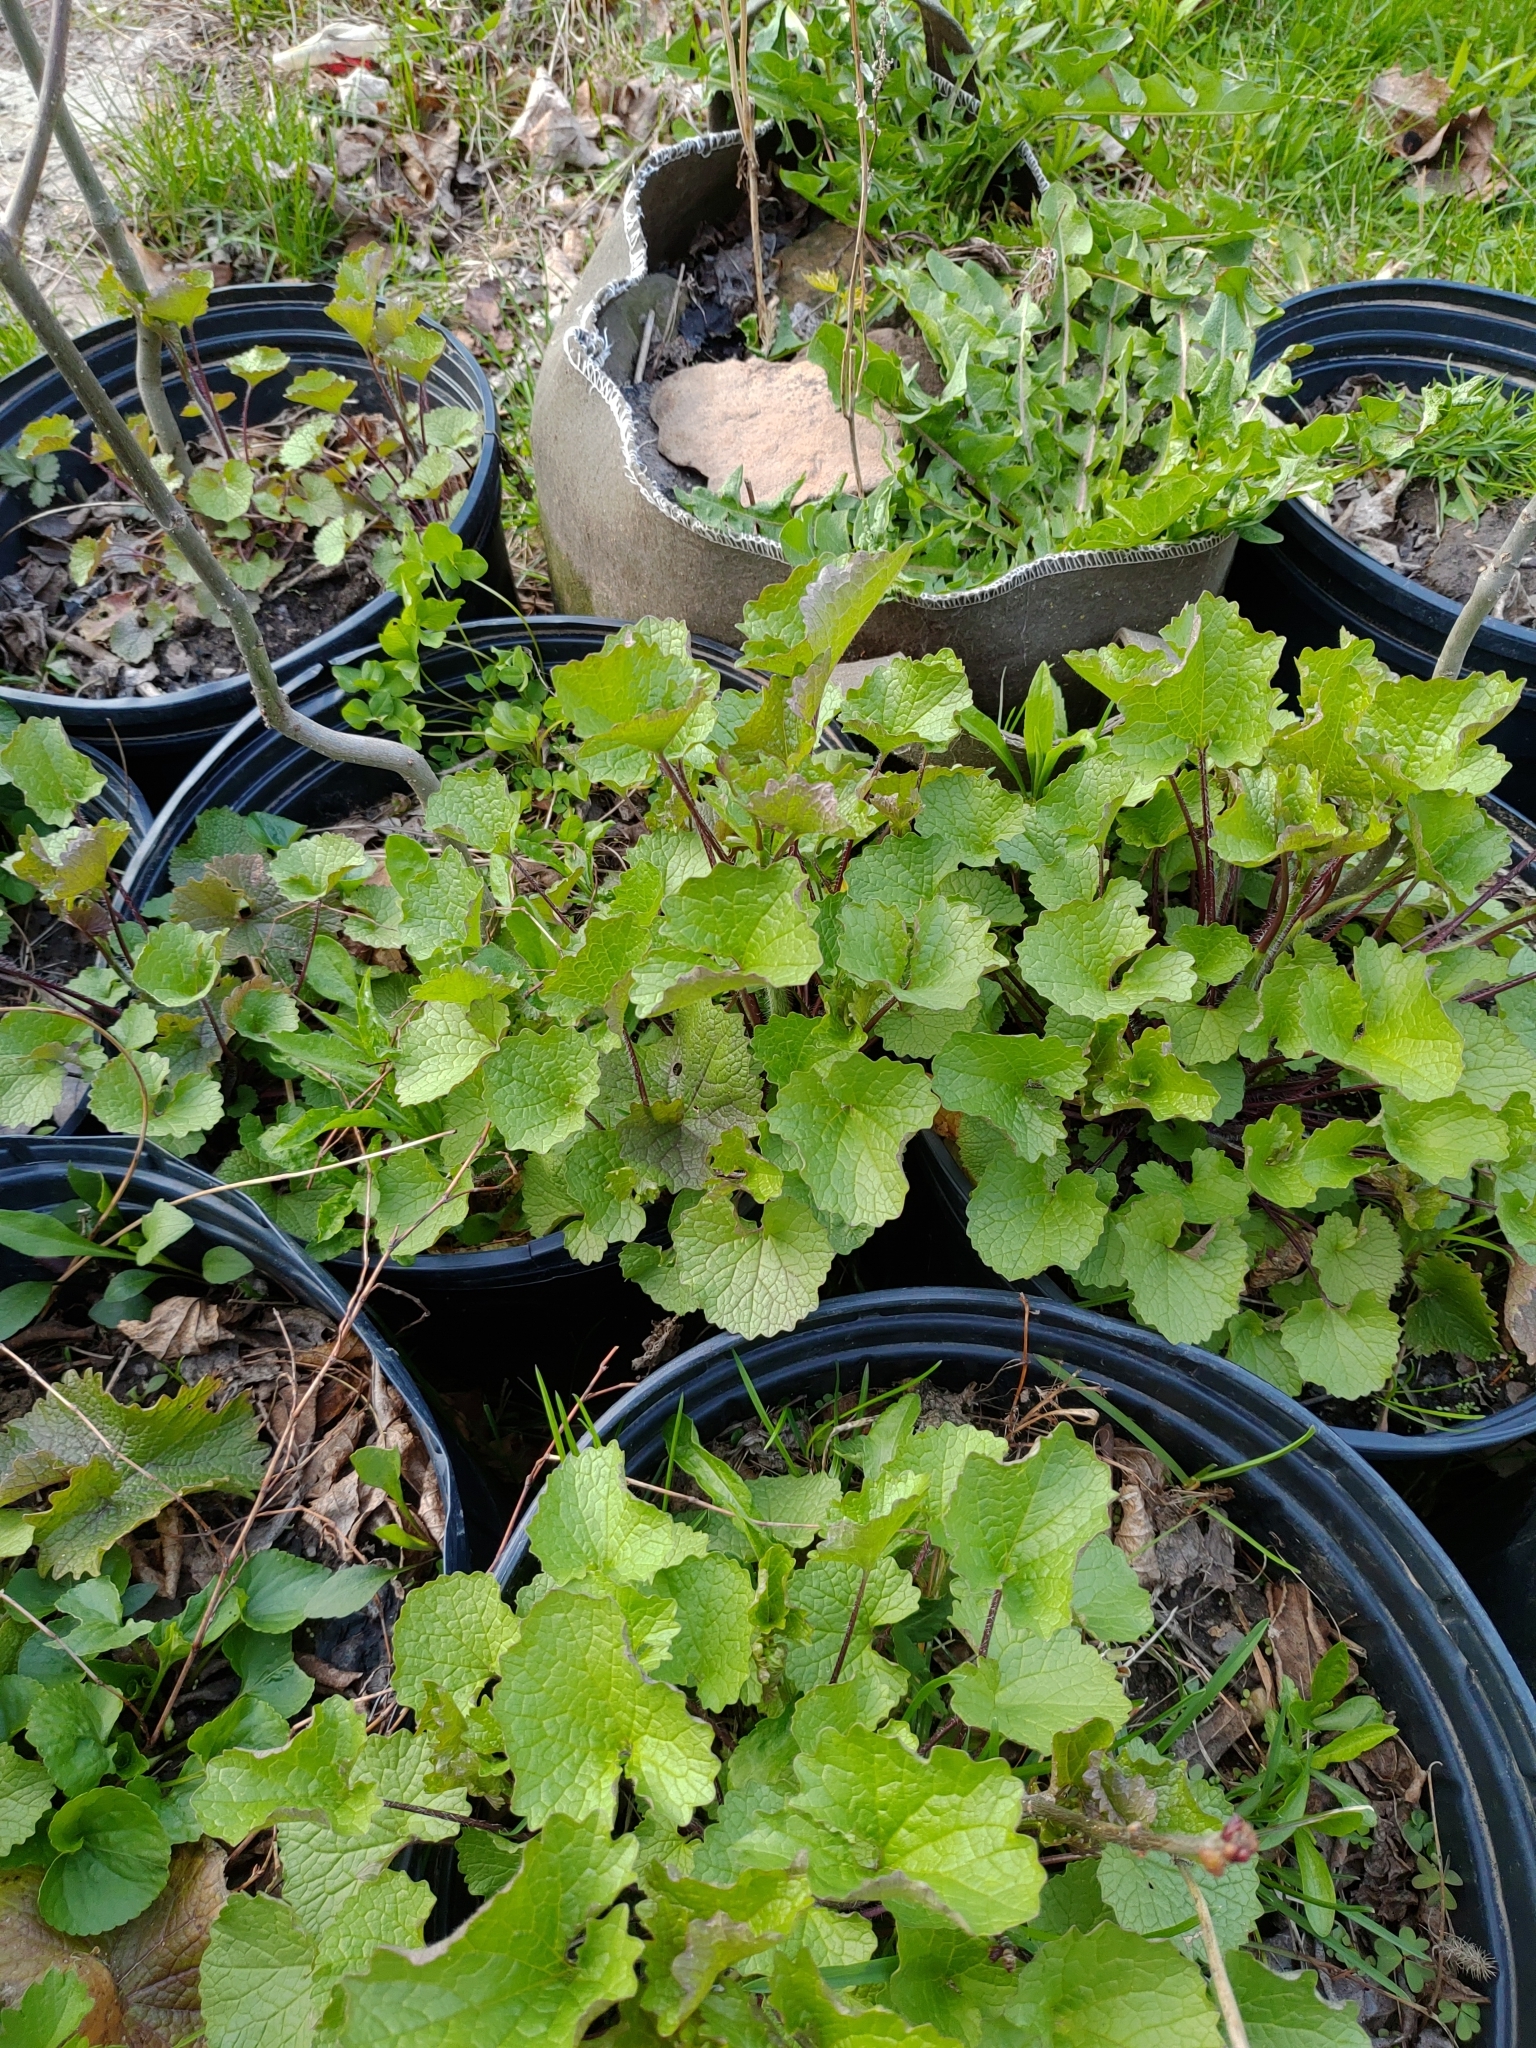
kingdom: Plantae
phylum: Tracheophyta
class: Magnoliopsida
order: Brassicales
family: Brassicaceae
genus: Alliaria
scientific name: Alliaria petiolata
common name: Garlic mustard
